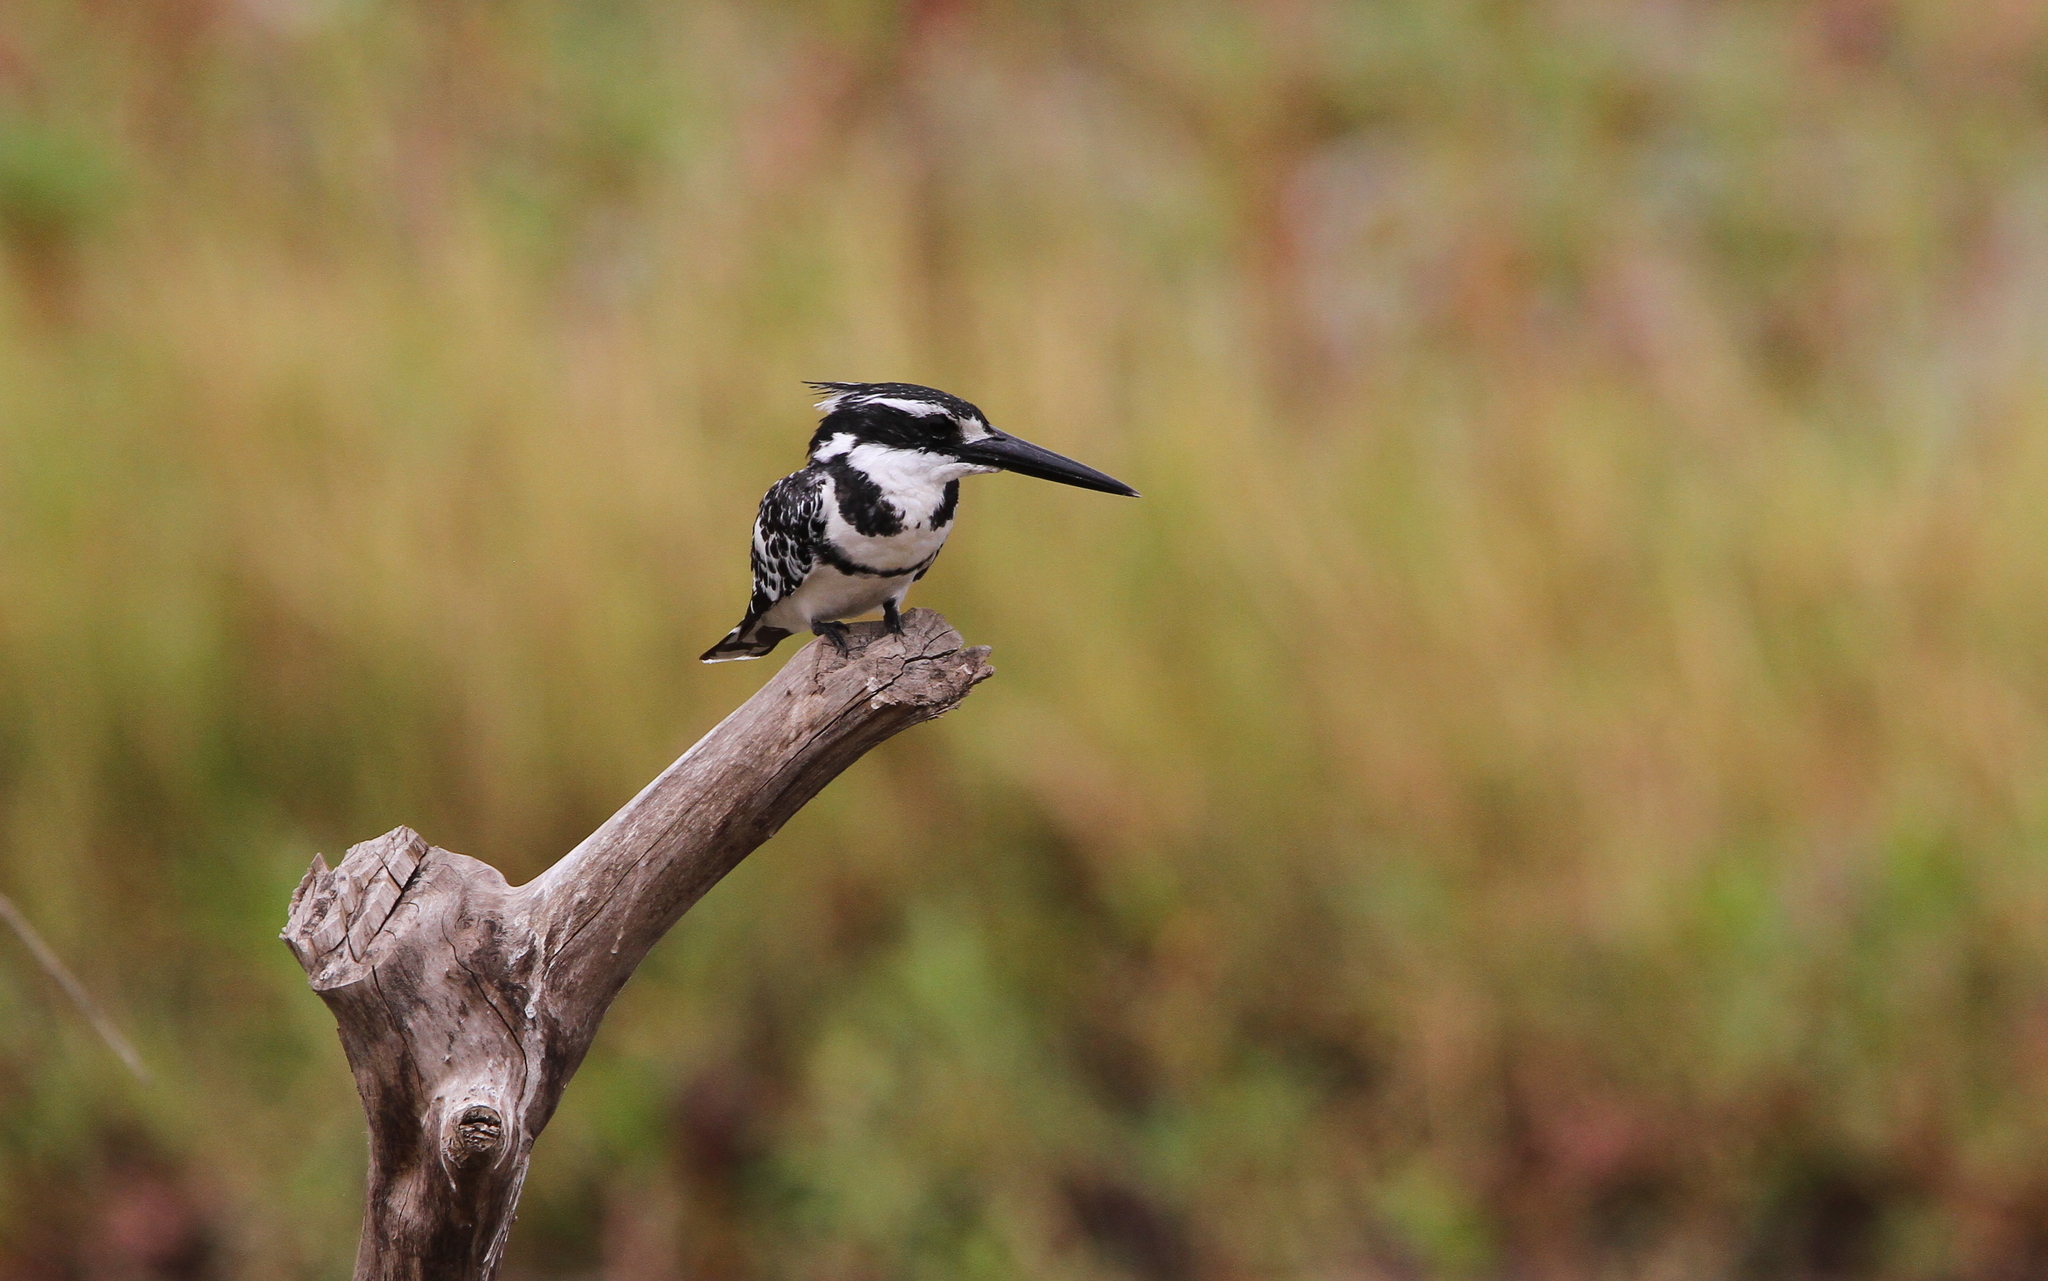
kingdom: Animalia
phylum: Chordata
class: Aves
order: Coraciiformes
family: Alcedinidae
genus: Ceryle
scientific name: Ceryle rudis
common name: Pied kingfisher
